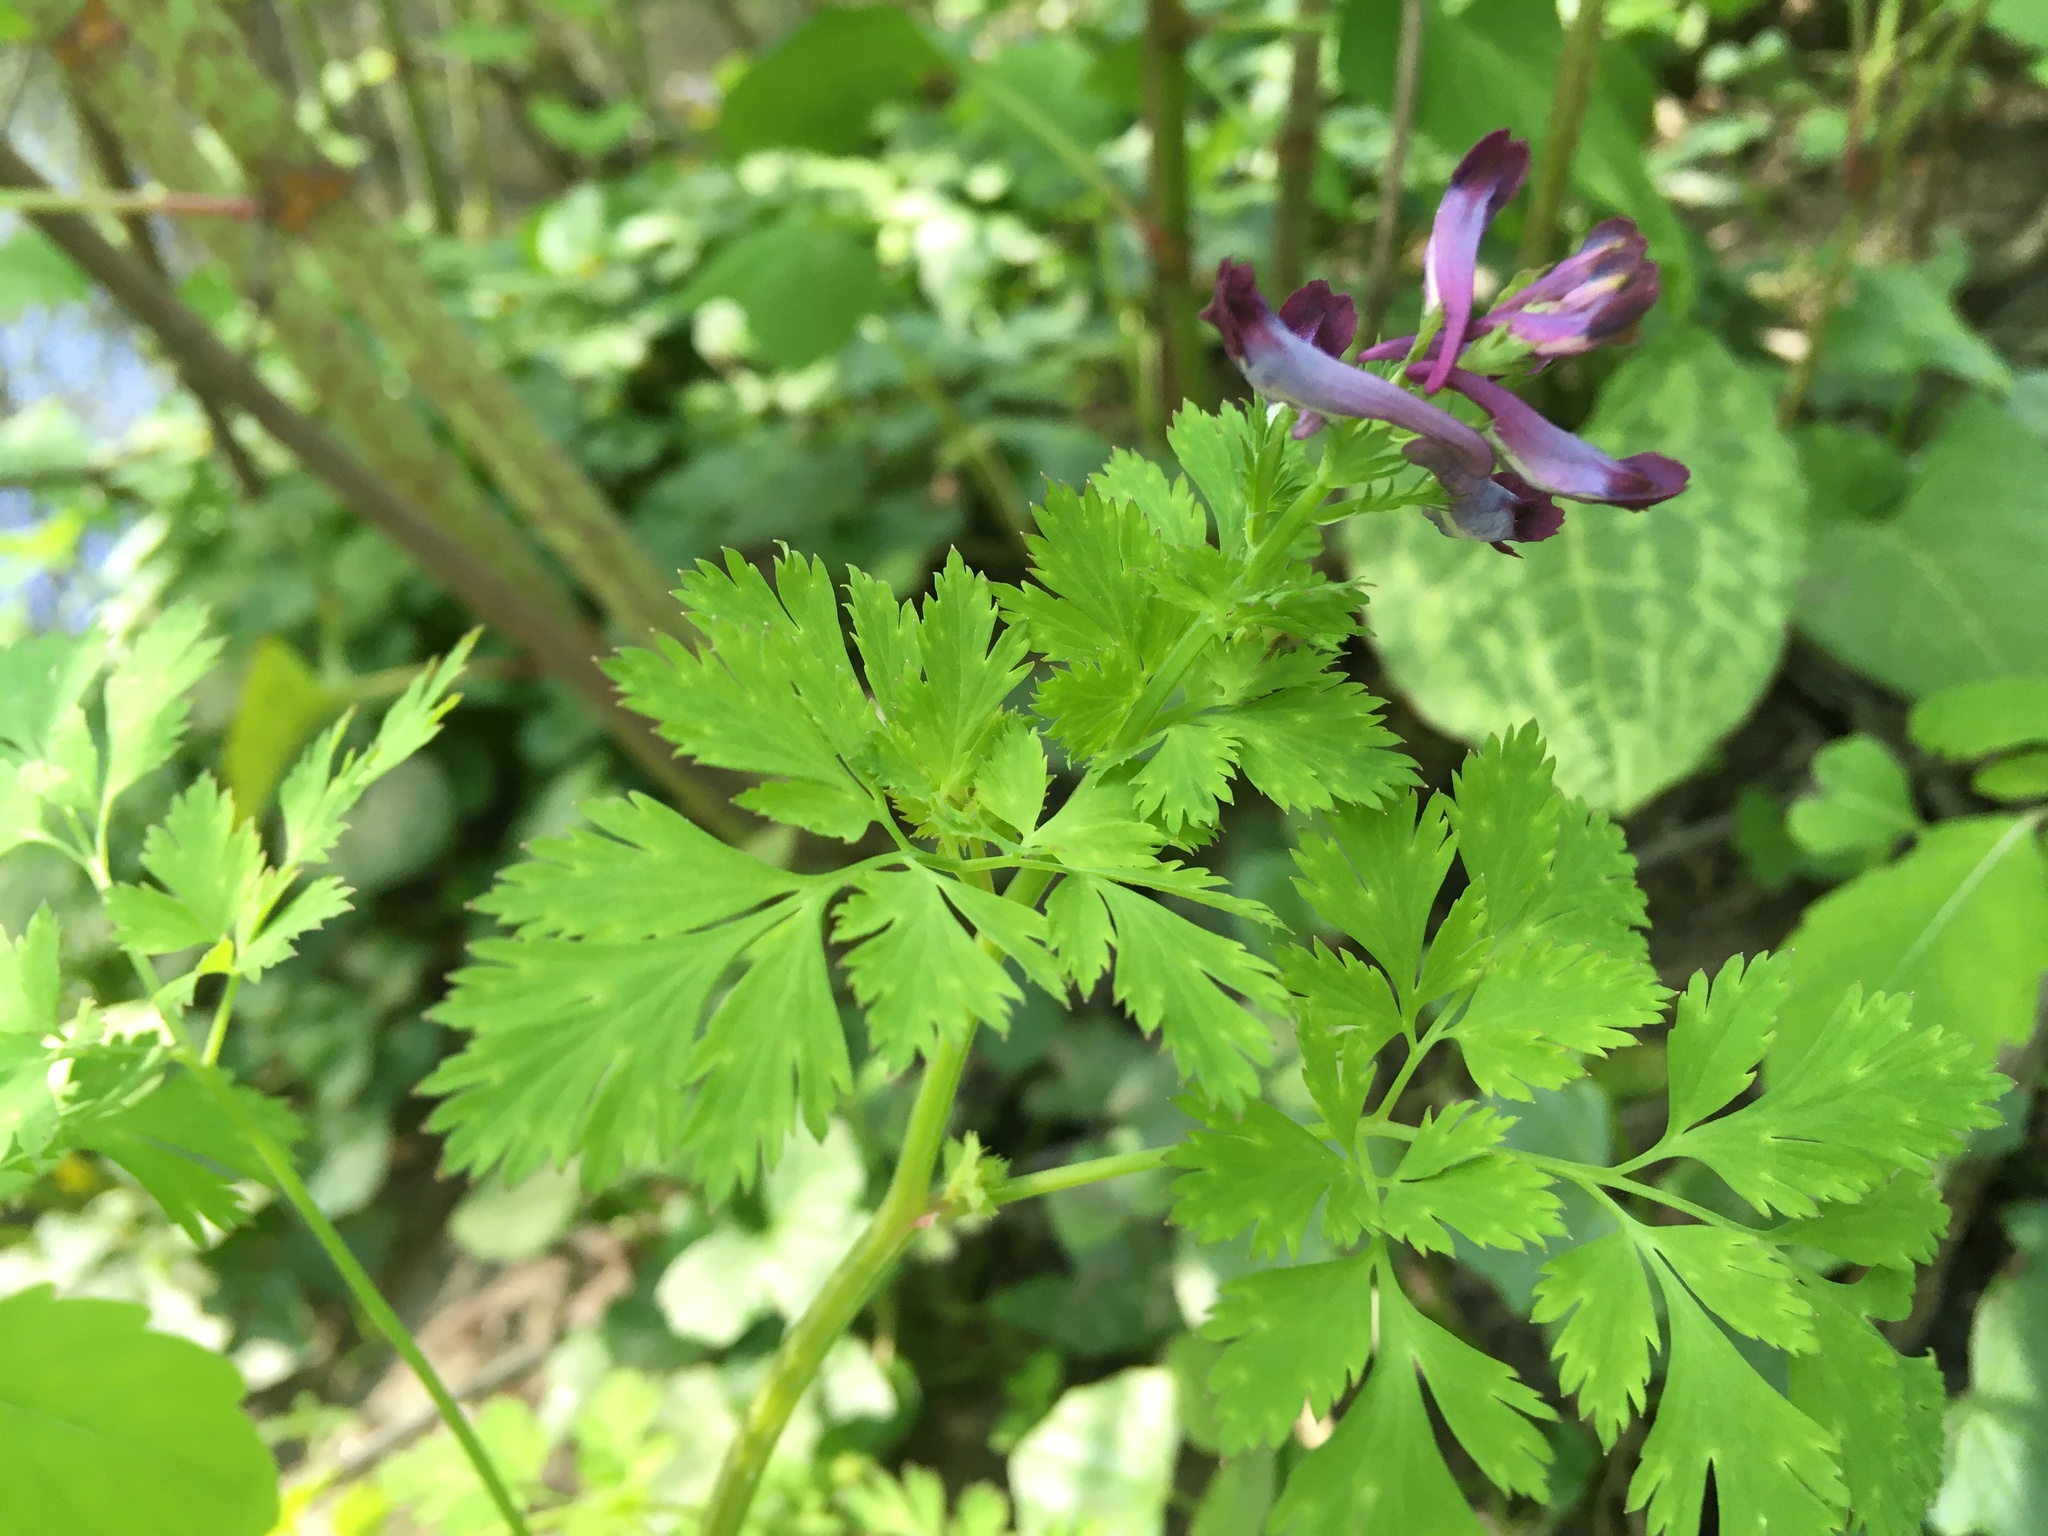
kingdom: Plantae
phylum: Tracheophyta
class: Magnoliopsida
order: Ranunculales
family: Papaveraceae
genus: Corydalis
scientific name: Corydalis incisa
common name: Incised fumewort
